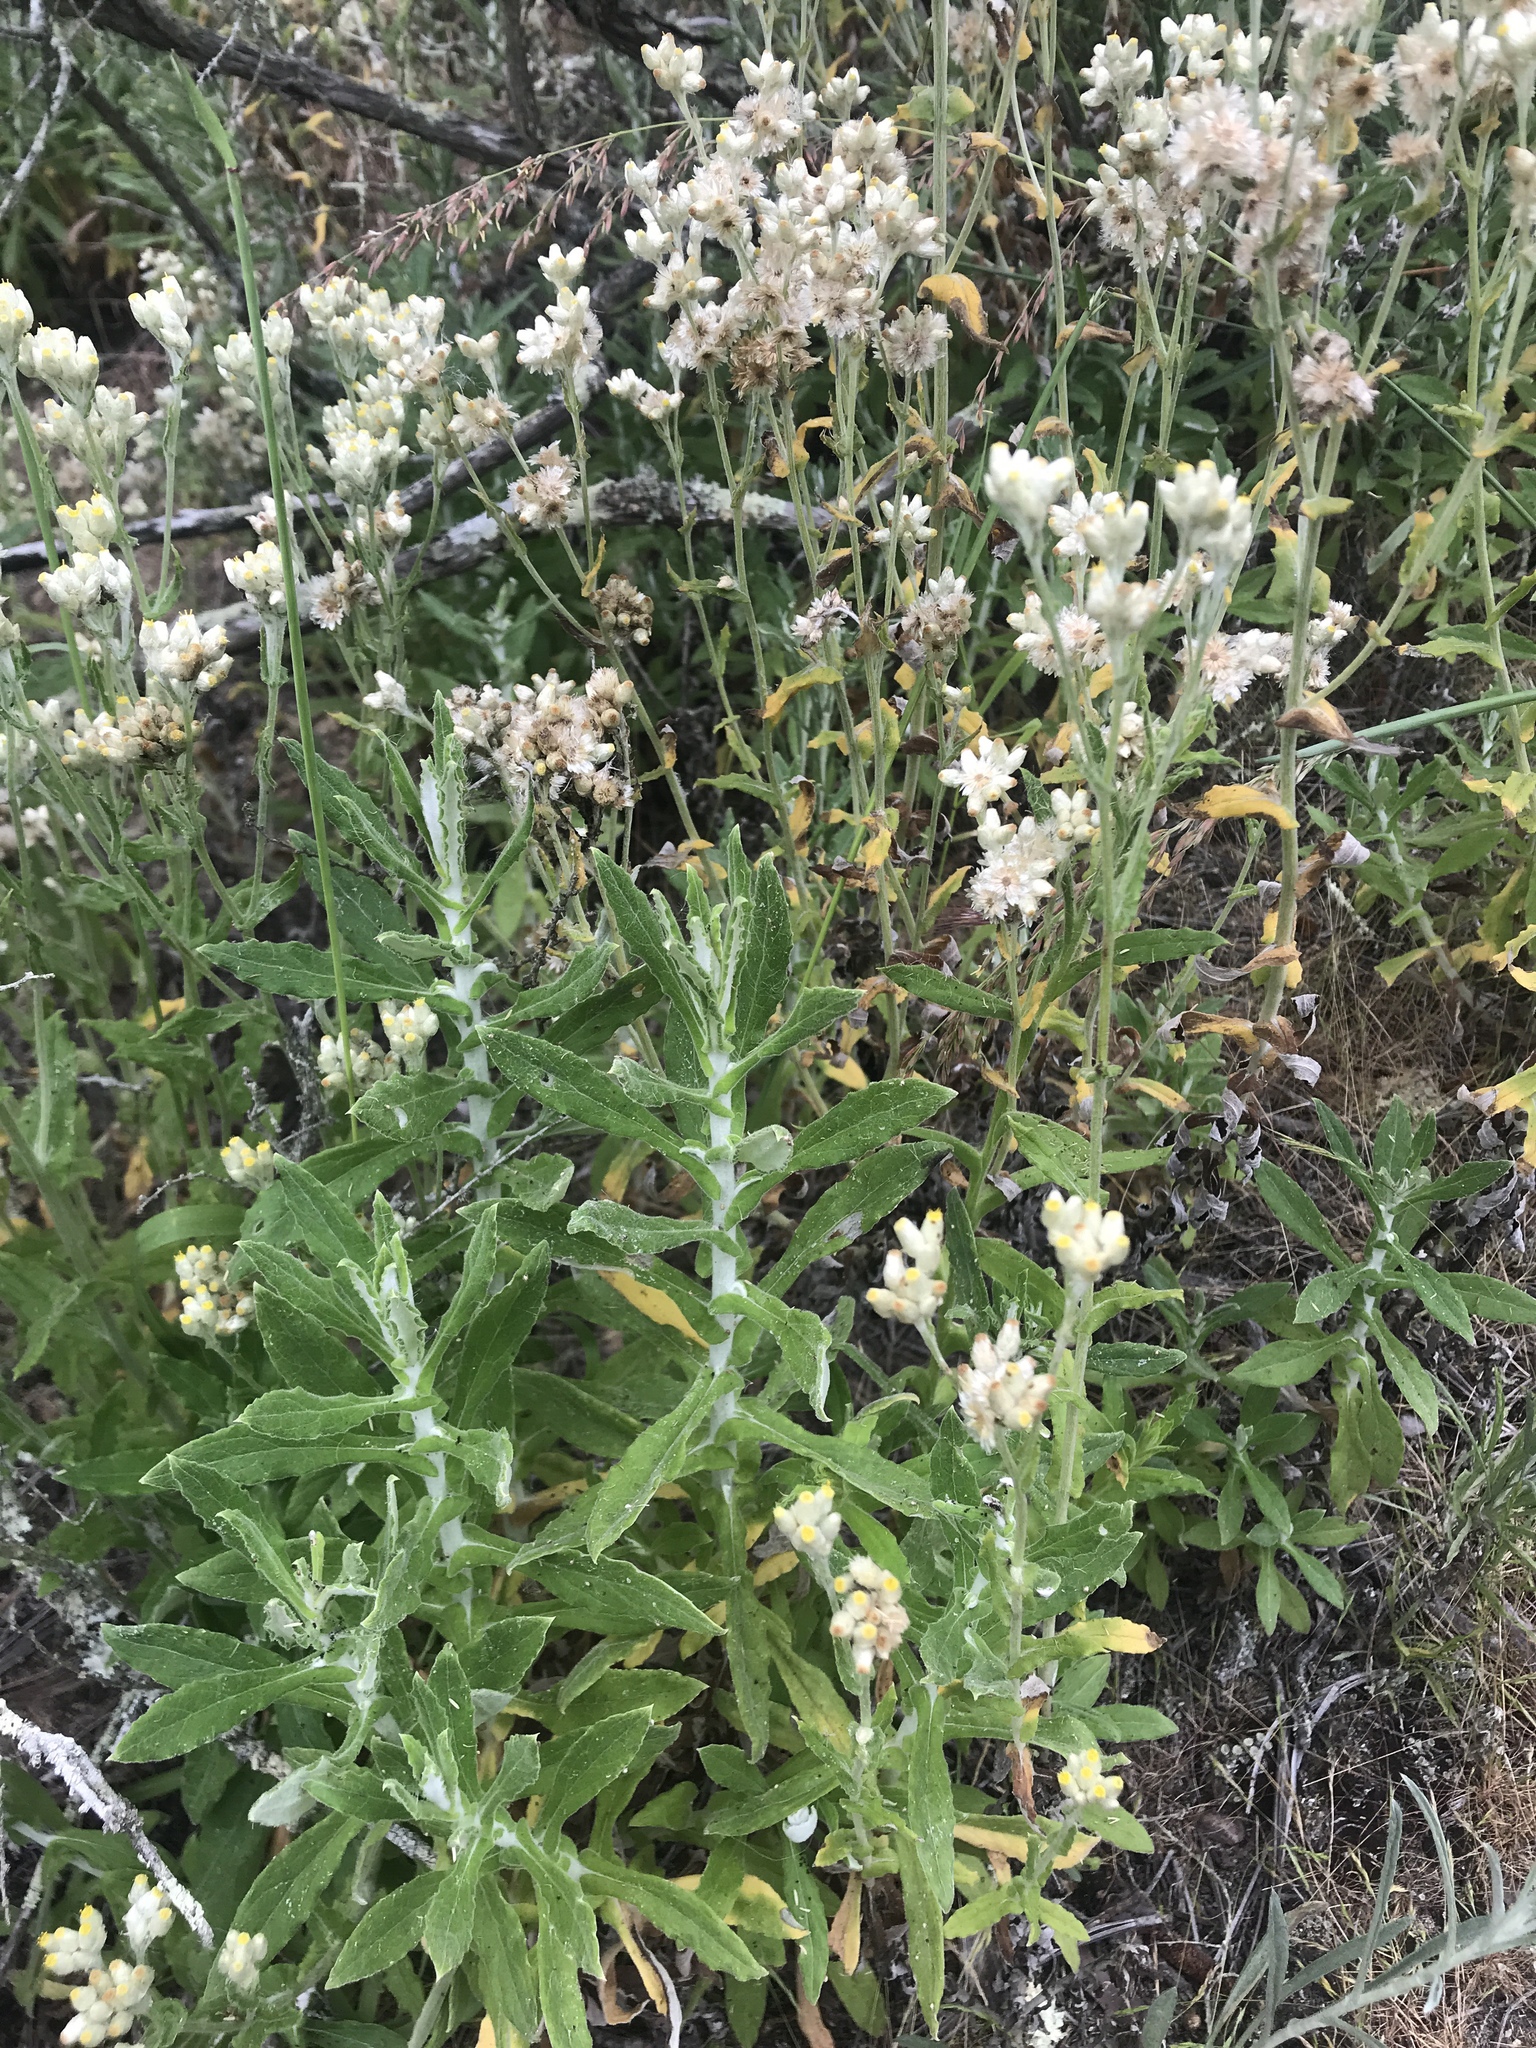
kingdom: Plantae
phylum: Tracheophyta
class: Magnoliopsida
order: Asterales
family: Asteraceae
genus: Pseudognaphalium
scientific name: Pseudognaphalium biolettii
